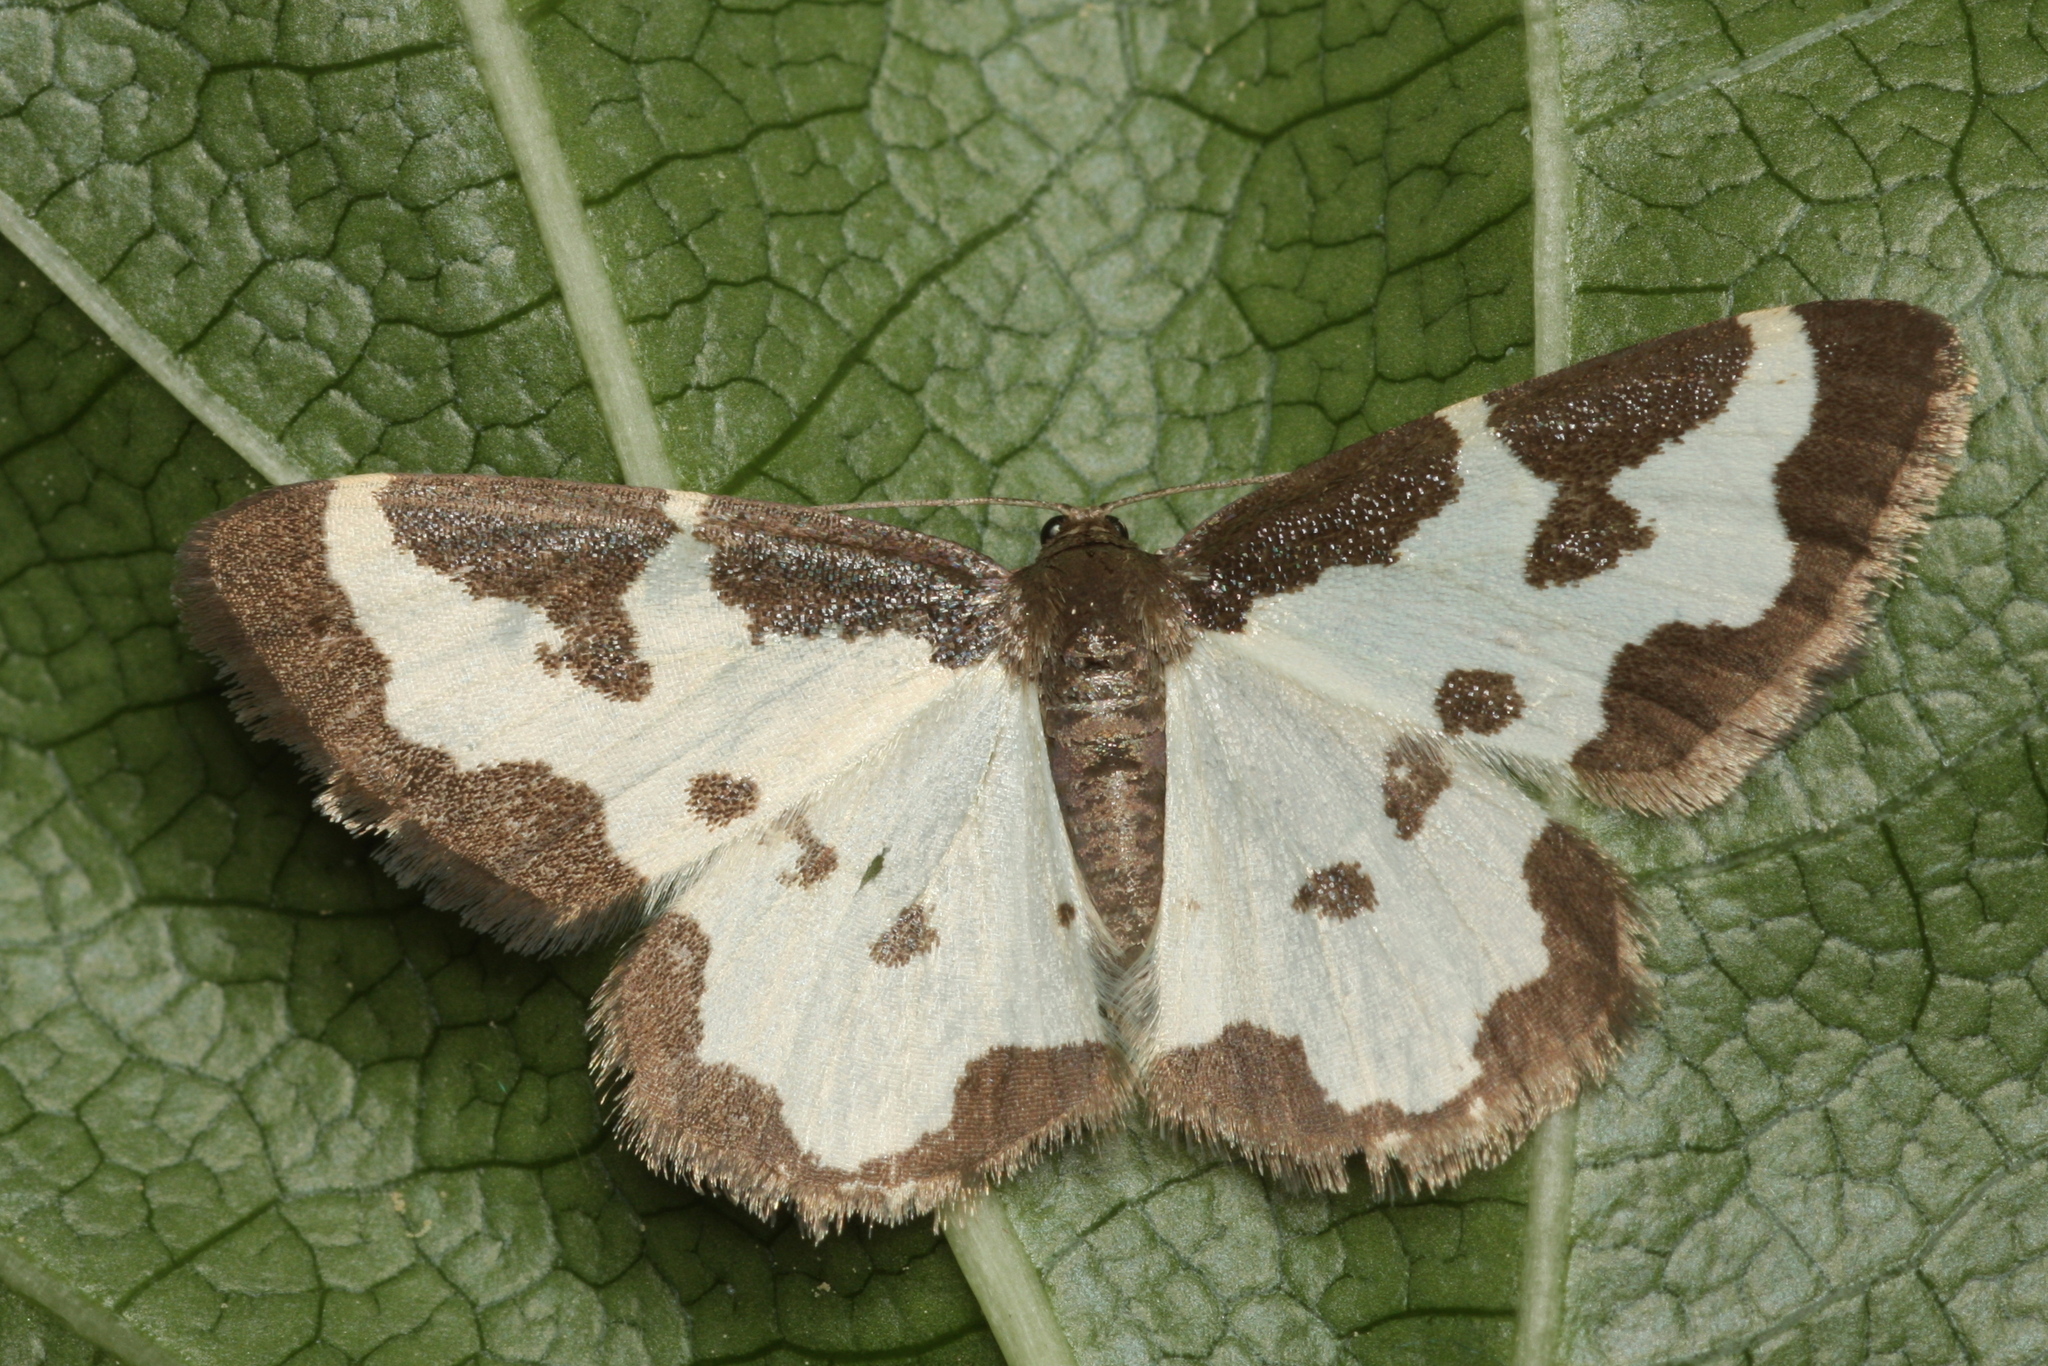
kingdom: Animalia
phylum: Arthropoda
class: Insecta
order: Lepidoptera
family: Geometridae
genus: Lomaspilis
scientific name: Lomaspilis marginata
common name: Clouded border
